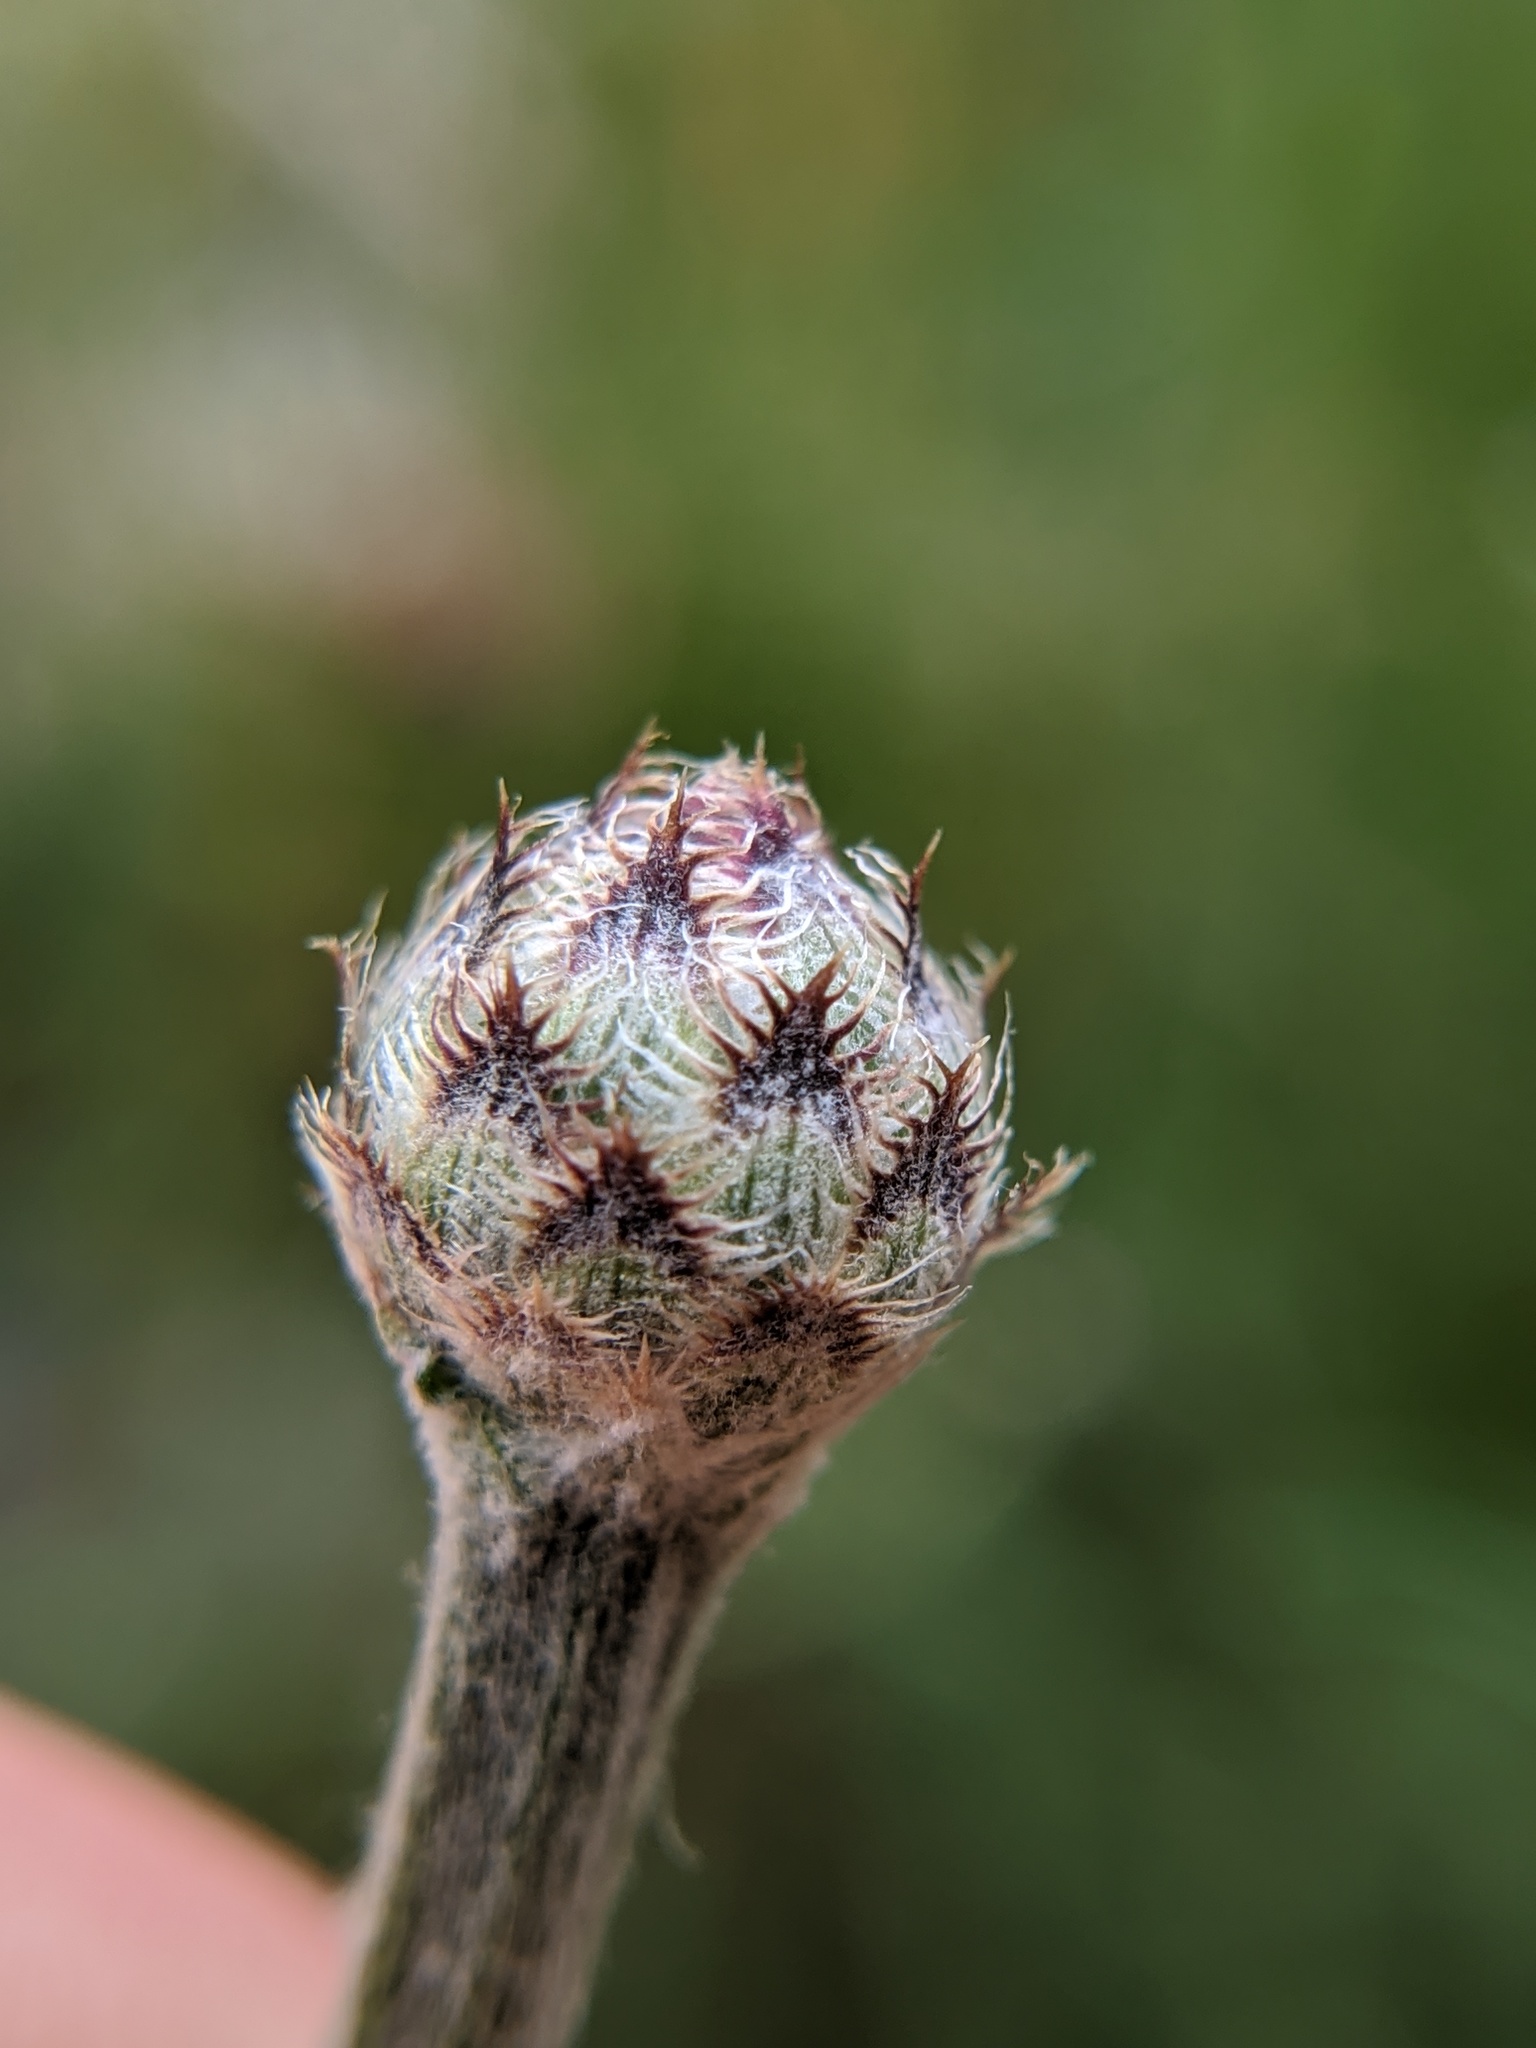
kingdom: Plantae
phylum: Tracheophyta
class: Magnoliopsida
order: Asterales
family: Asteraceae
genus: Centaurea
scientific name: Centaurea stoebe
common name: Spotted knapweed
